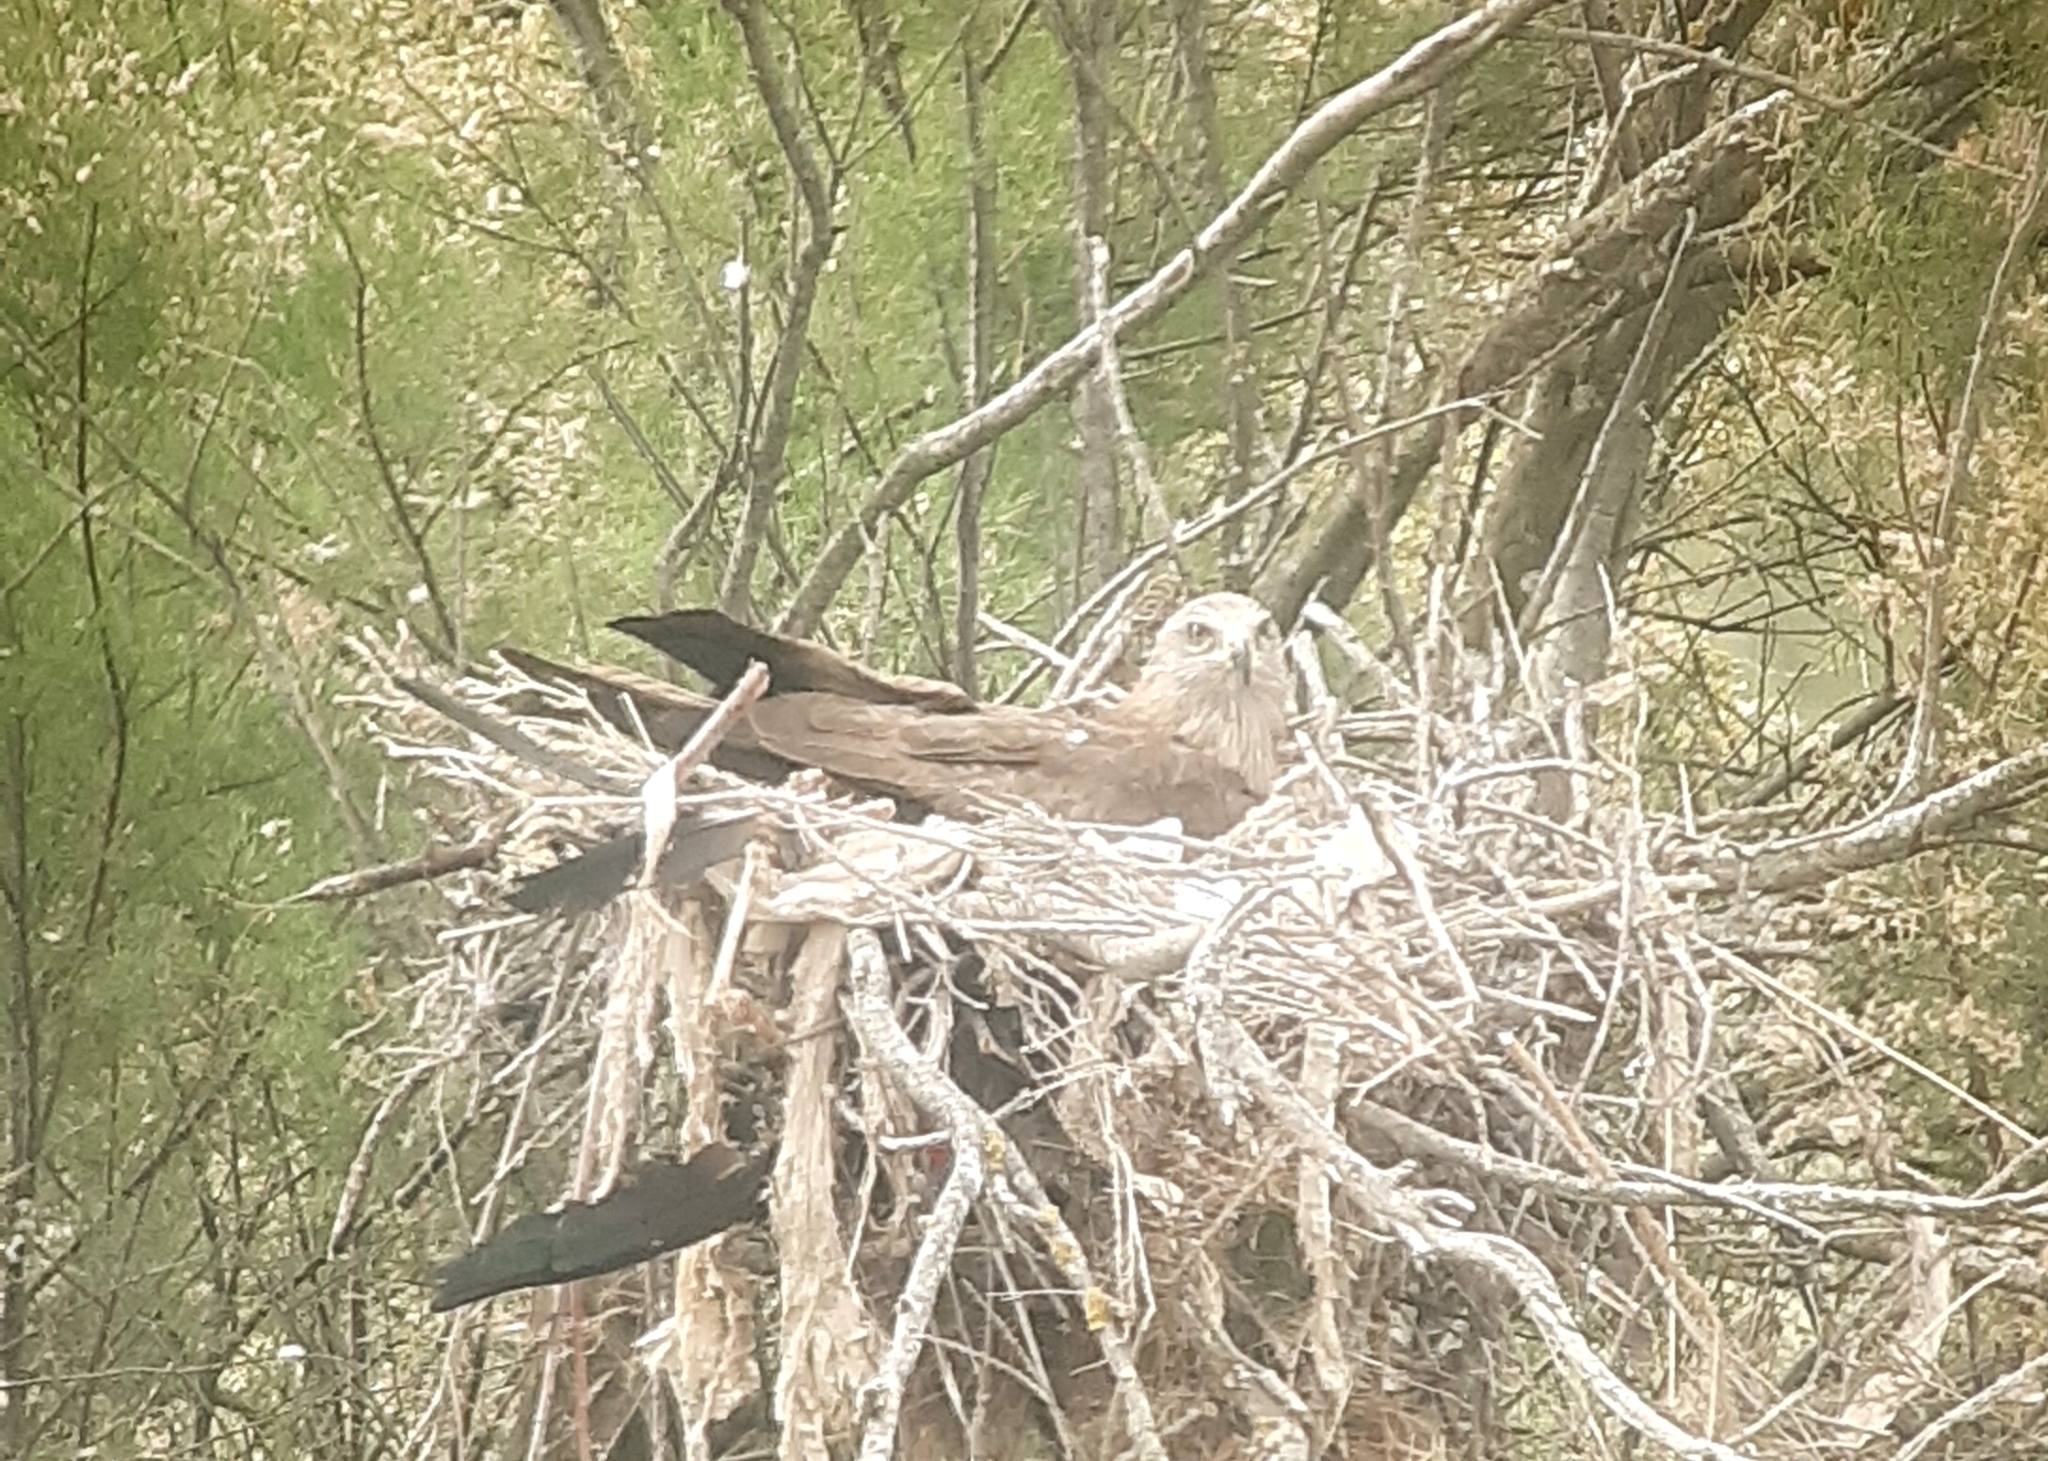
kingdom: Animalia
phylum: Chordata
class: Aves
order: Accipitriformes
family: Accipitridae
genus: Milvus
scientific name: Milvus migrans
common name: Black kite
